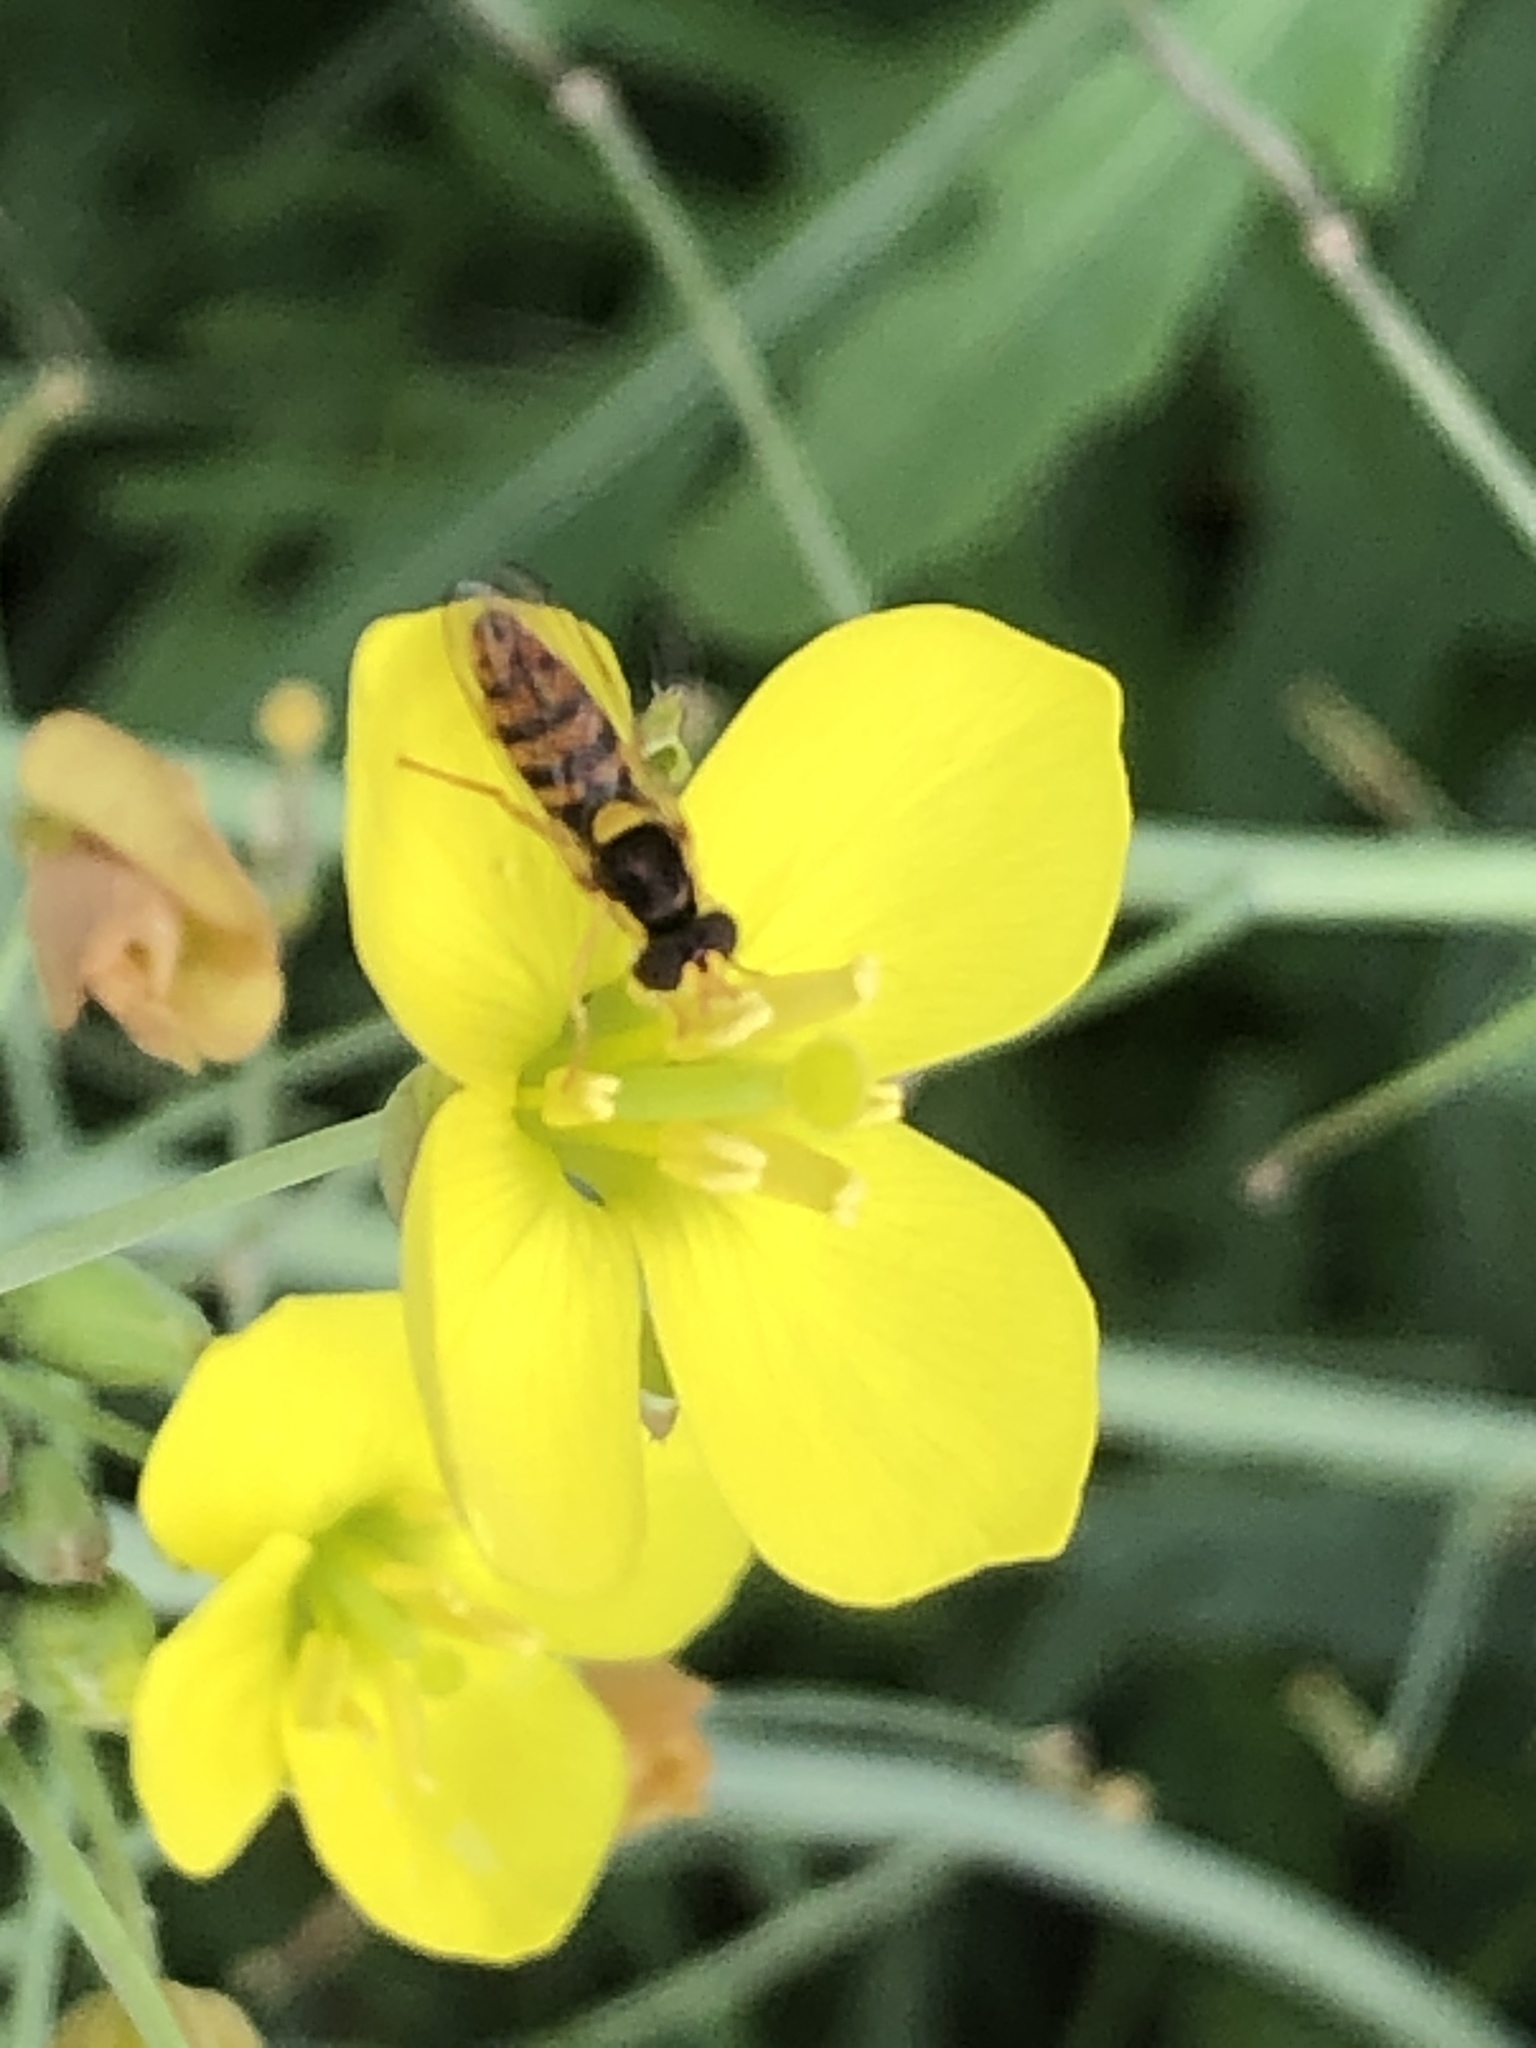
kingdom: Animalia
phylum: Arthropoda
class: Insecta
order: Diptera
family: Syrphidae
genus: Sphaerophoria
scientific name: Sphaerophoria pyrrhina
